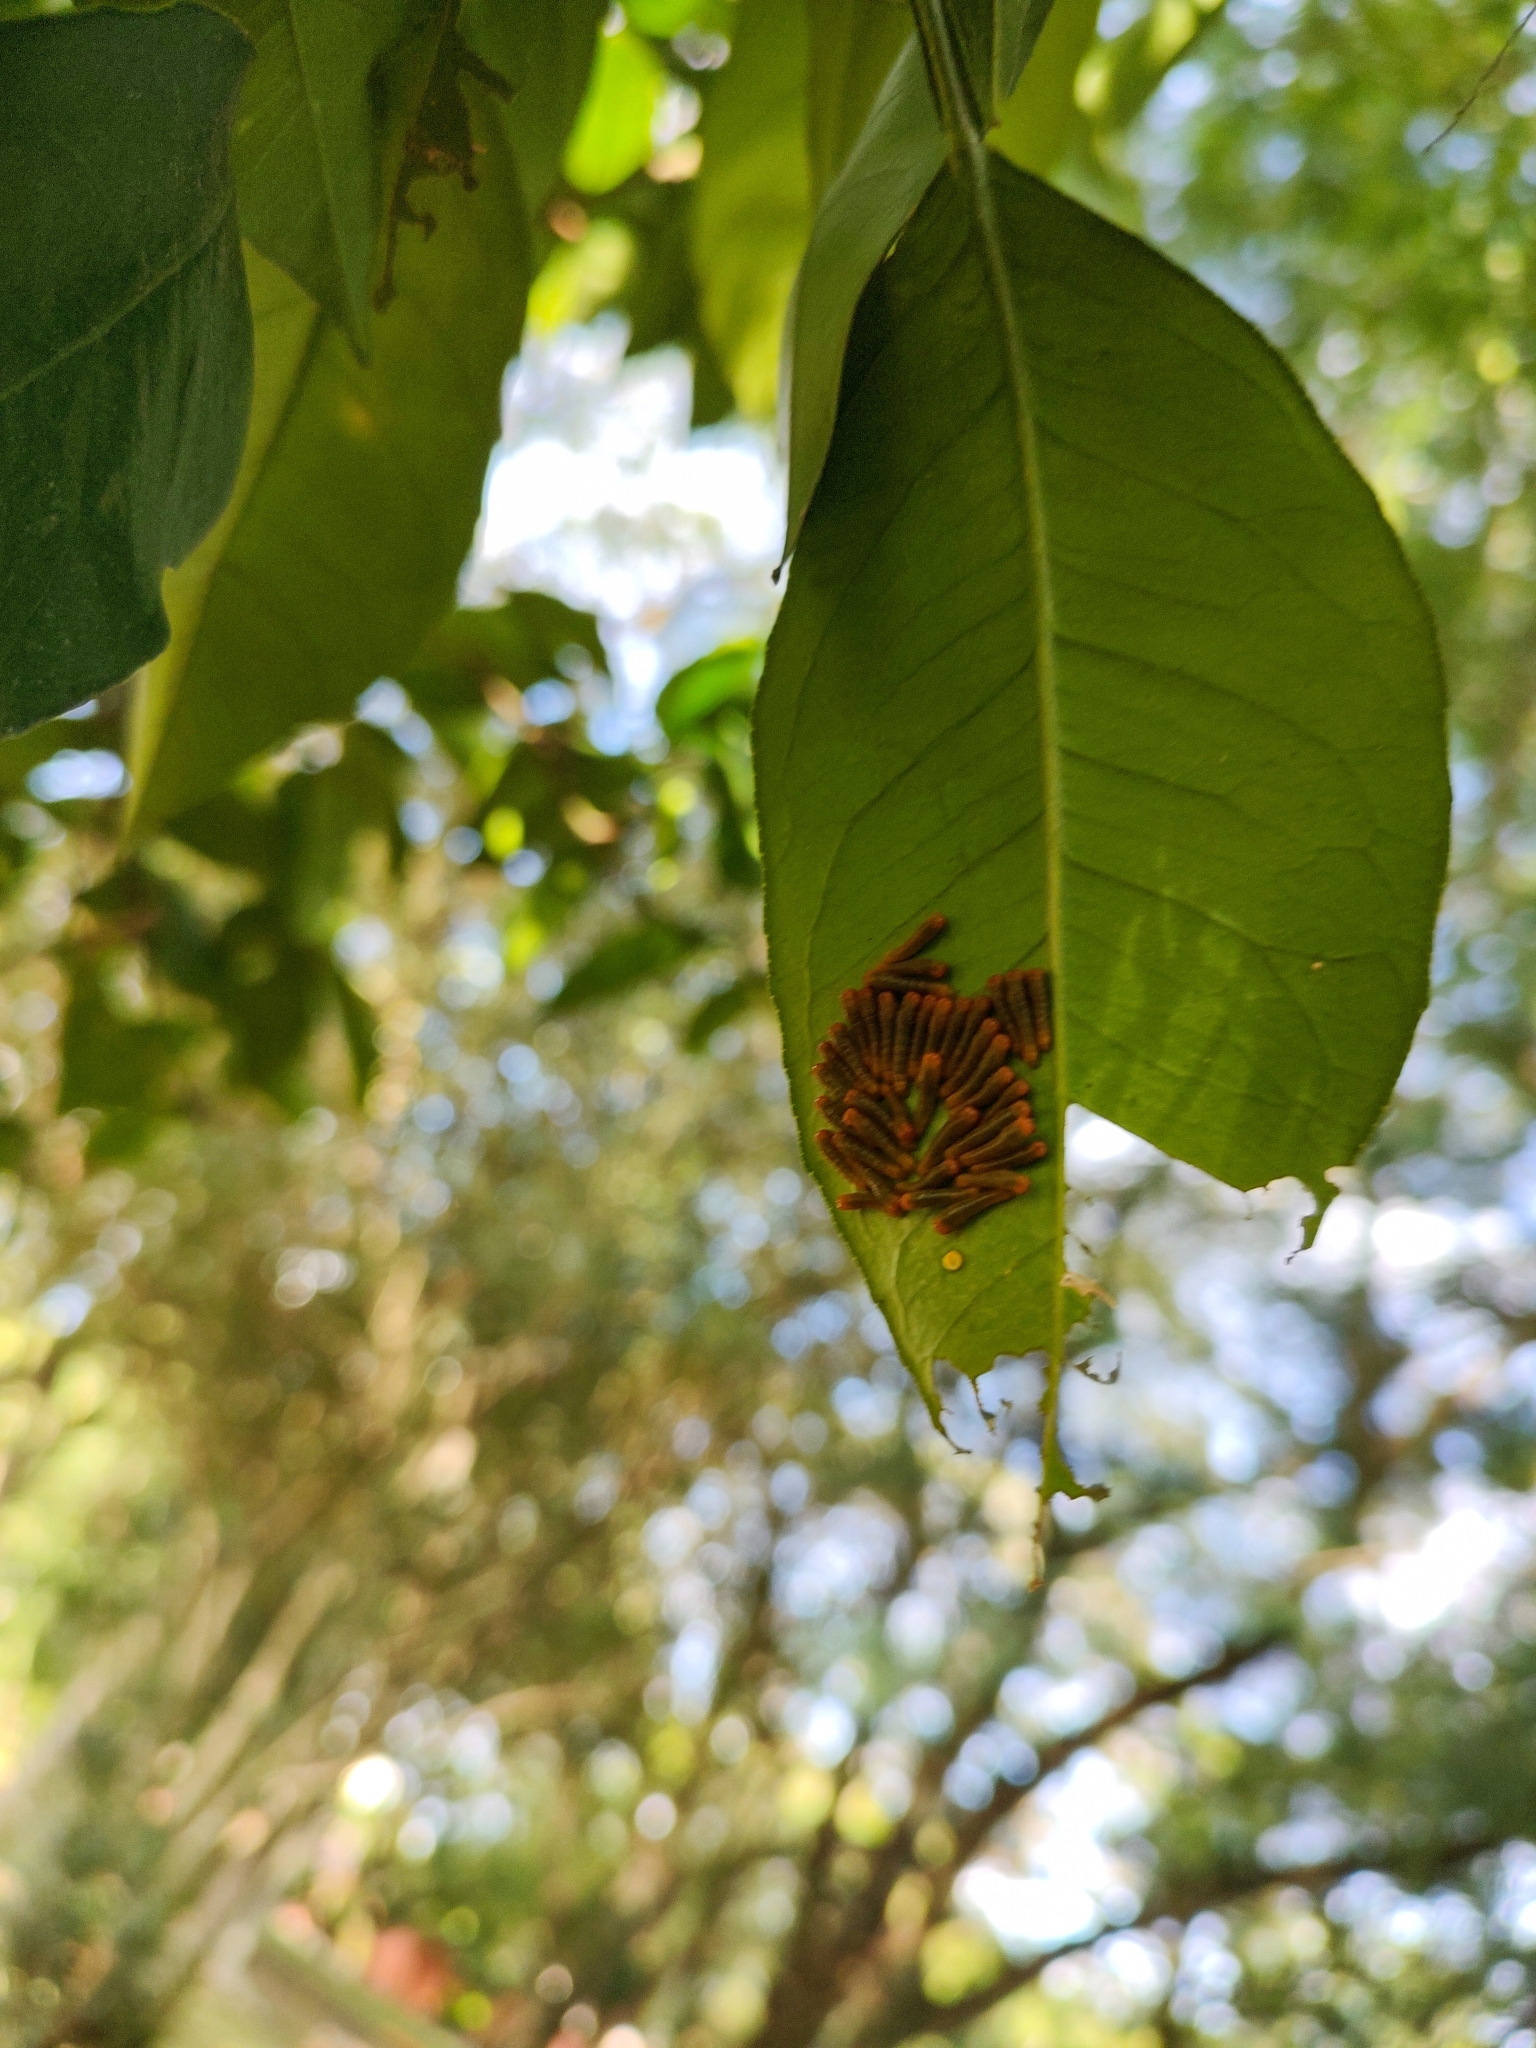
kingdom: Animalia
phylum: Arthropoda
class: Insecta
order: Lepidoptera
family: Papilionidae
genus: Papilio
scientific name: Papilio anchisiades
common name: Idaes swallowtail
